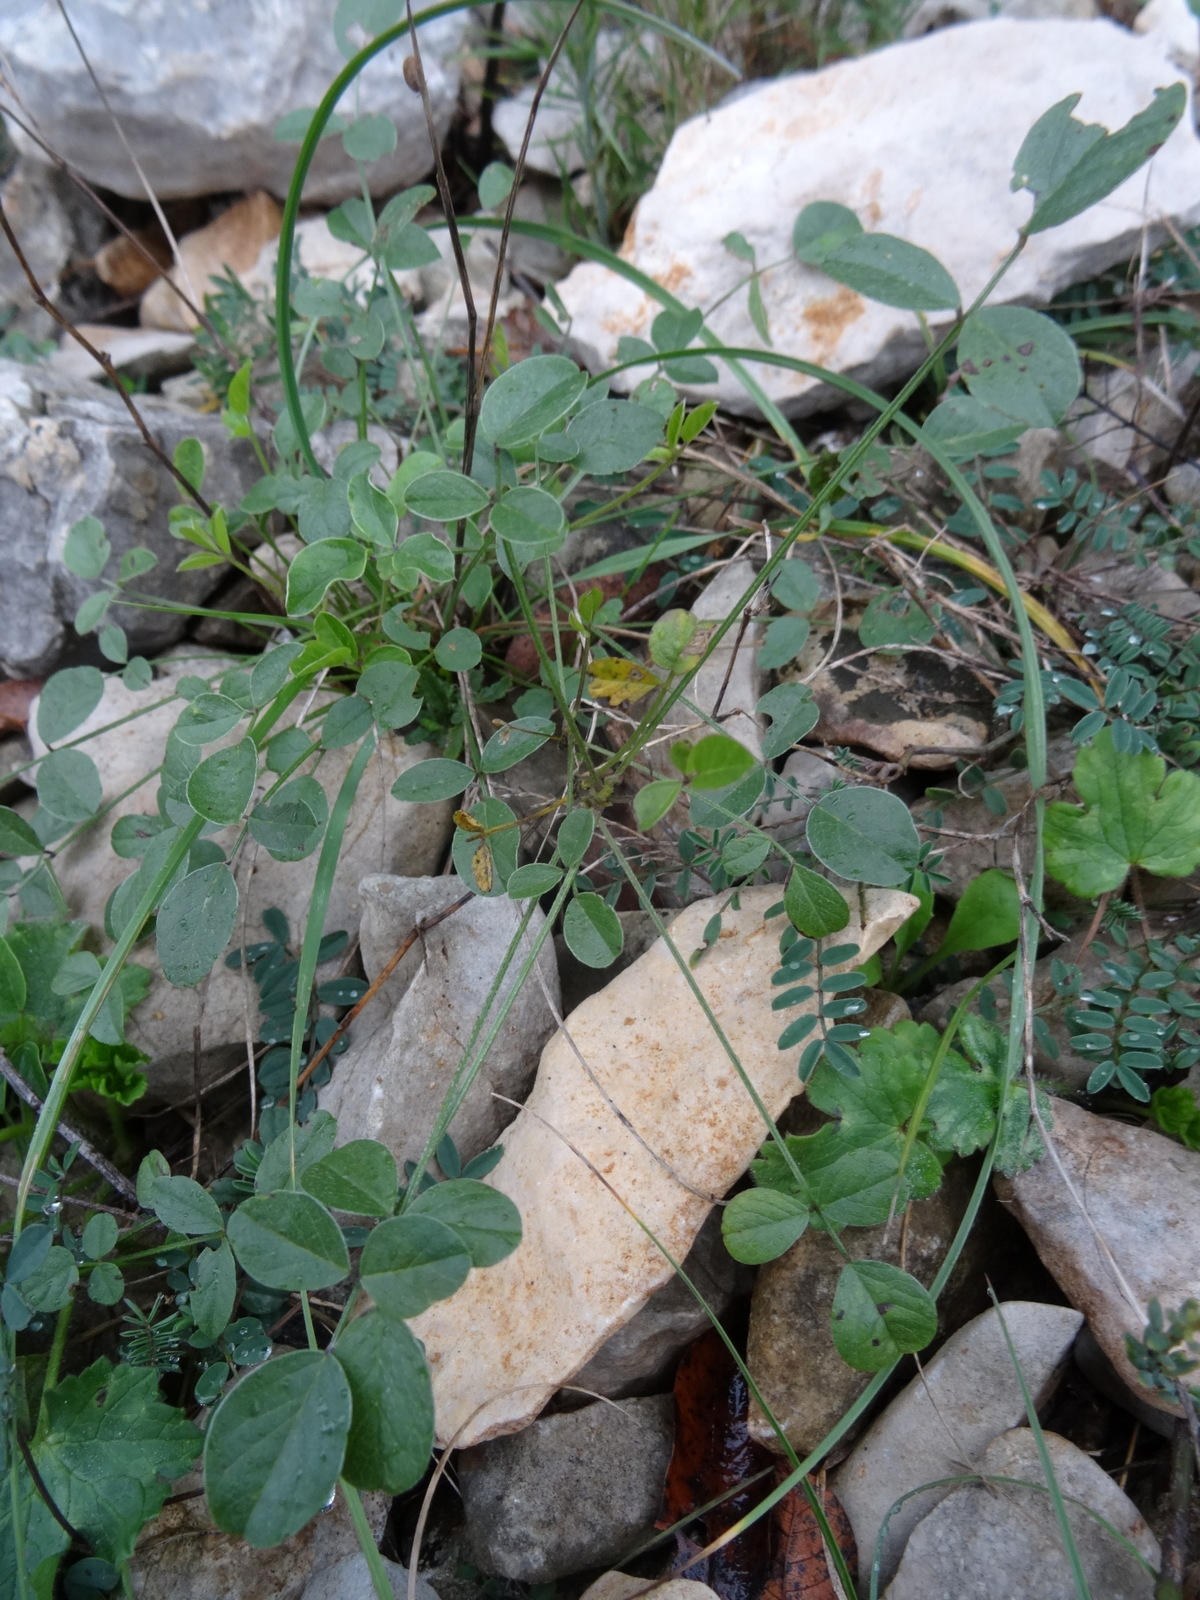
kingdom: Plantae
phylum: Tracheophyta
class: Magnoliopsida
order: Fabales
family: Fabaceae
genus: Bituminaria
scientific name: Bituminaria bituminosa
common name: Arabian pea
